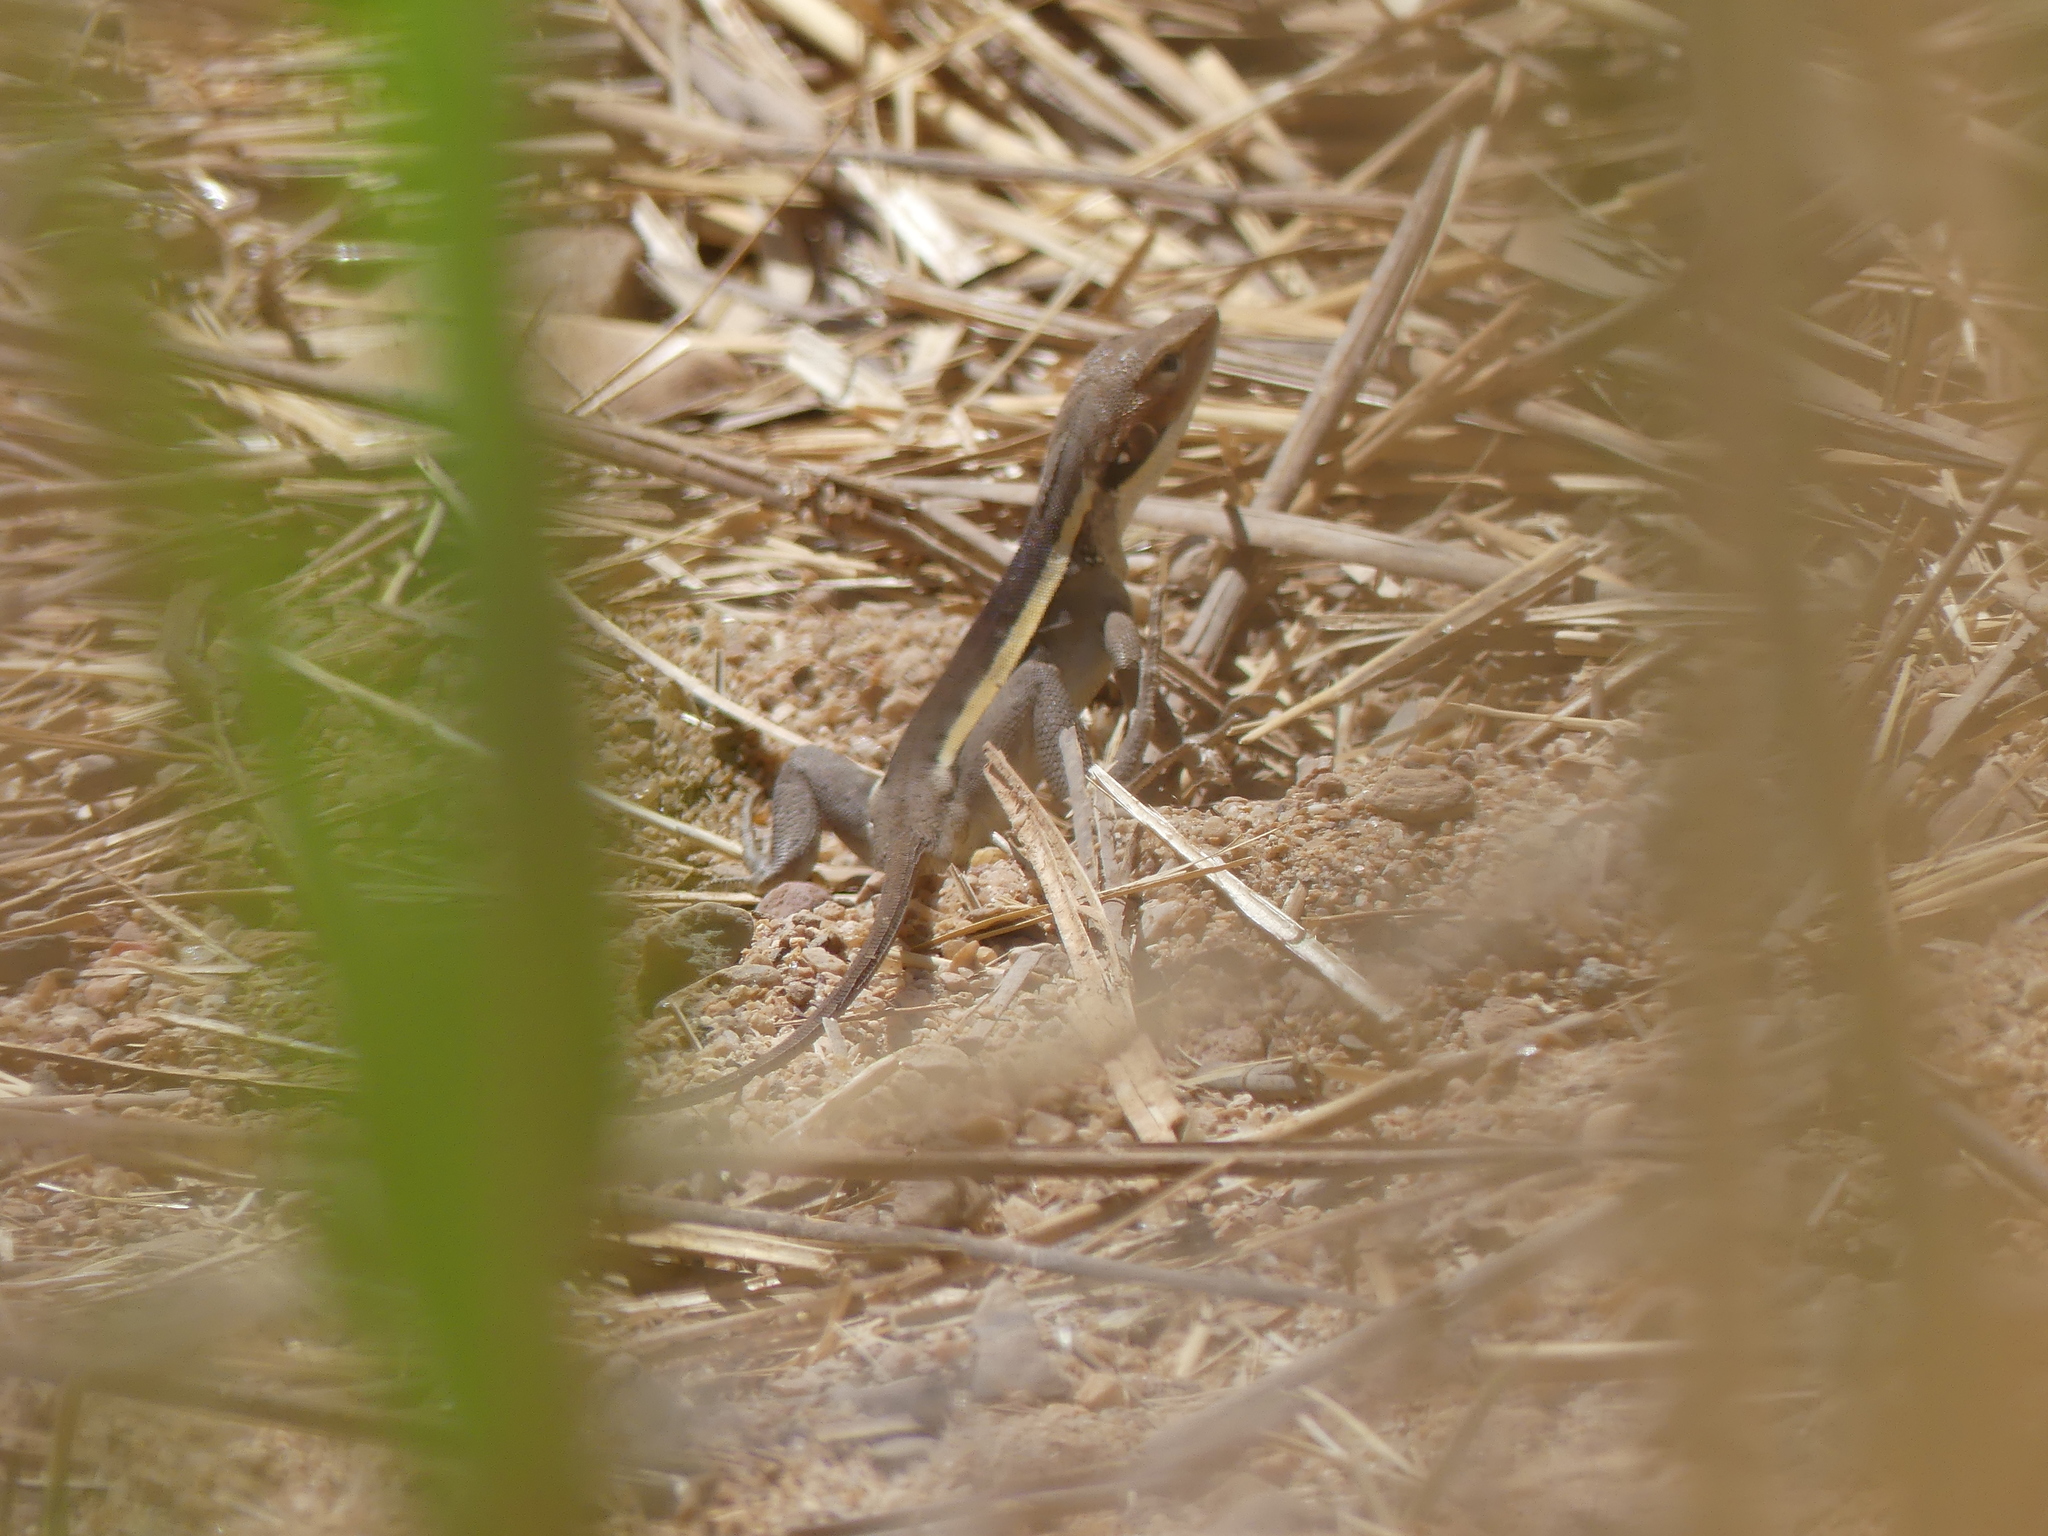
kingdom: Animalia
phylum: Chordata
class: Squamata
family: Agamidae
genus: Gowidon
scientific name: Gowidon longirostris
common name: Long-nosed water dragon
